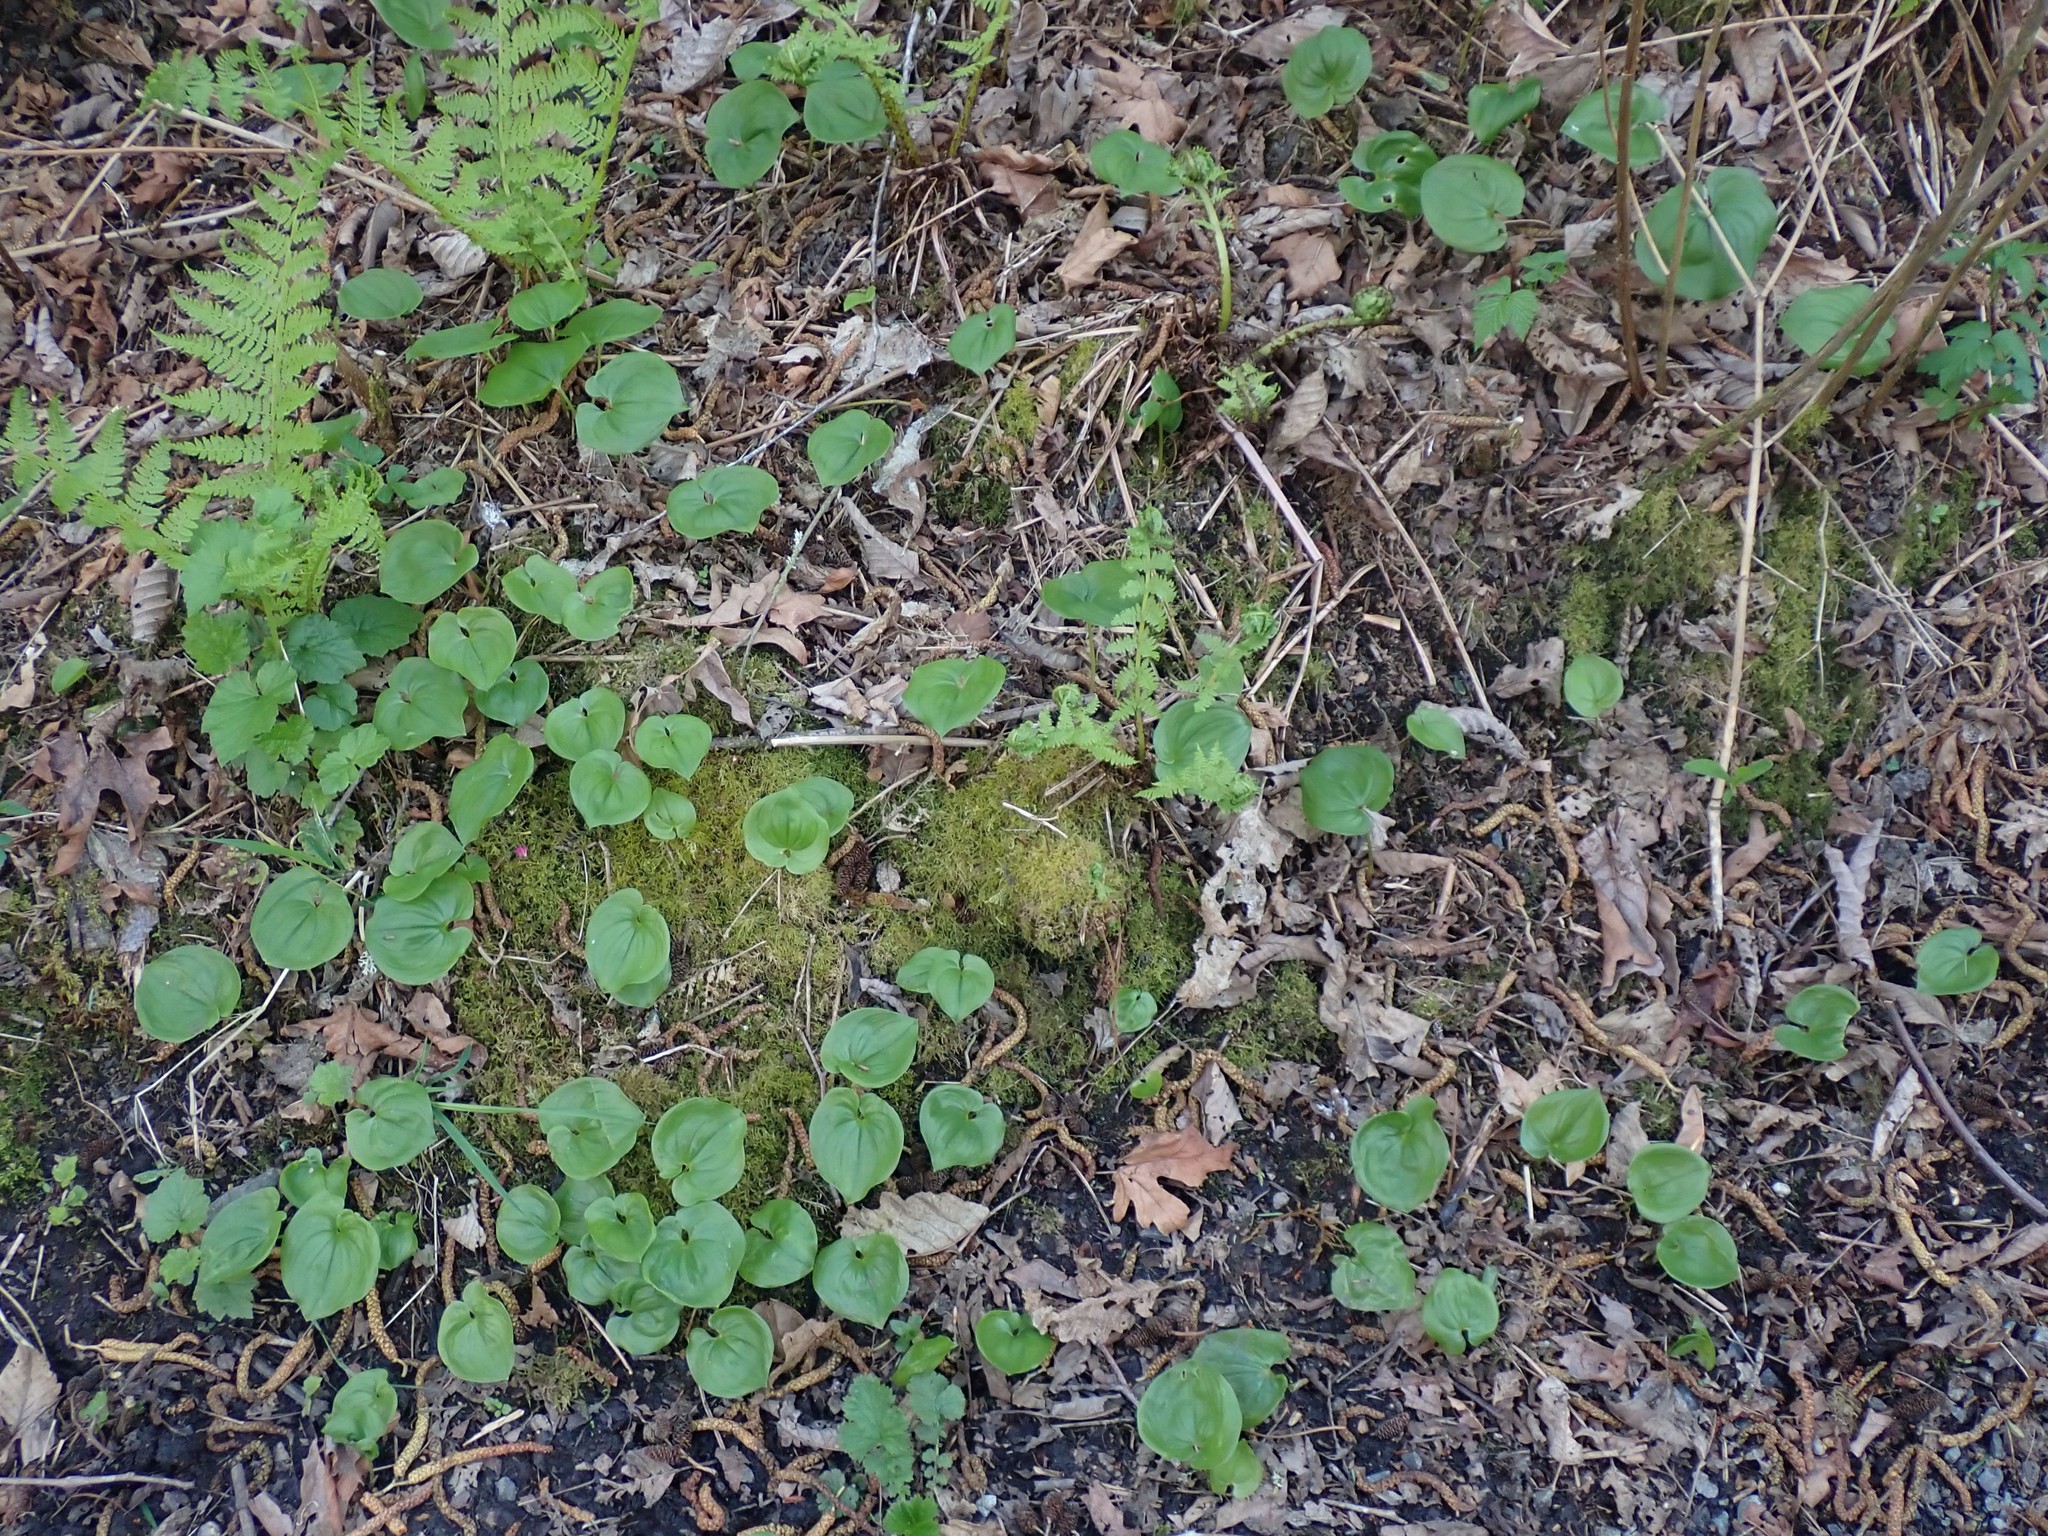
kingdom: Plantae
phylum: Tracheophyta
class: Liliopsida
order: Asparagales
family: Asparagaceae
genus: Maianthemum
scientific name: Maianthemum dilatatum
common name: False lily-of-the-valley
